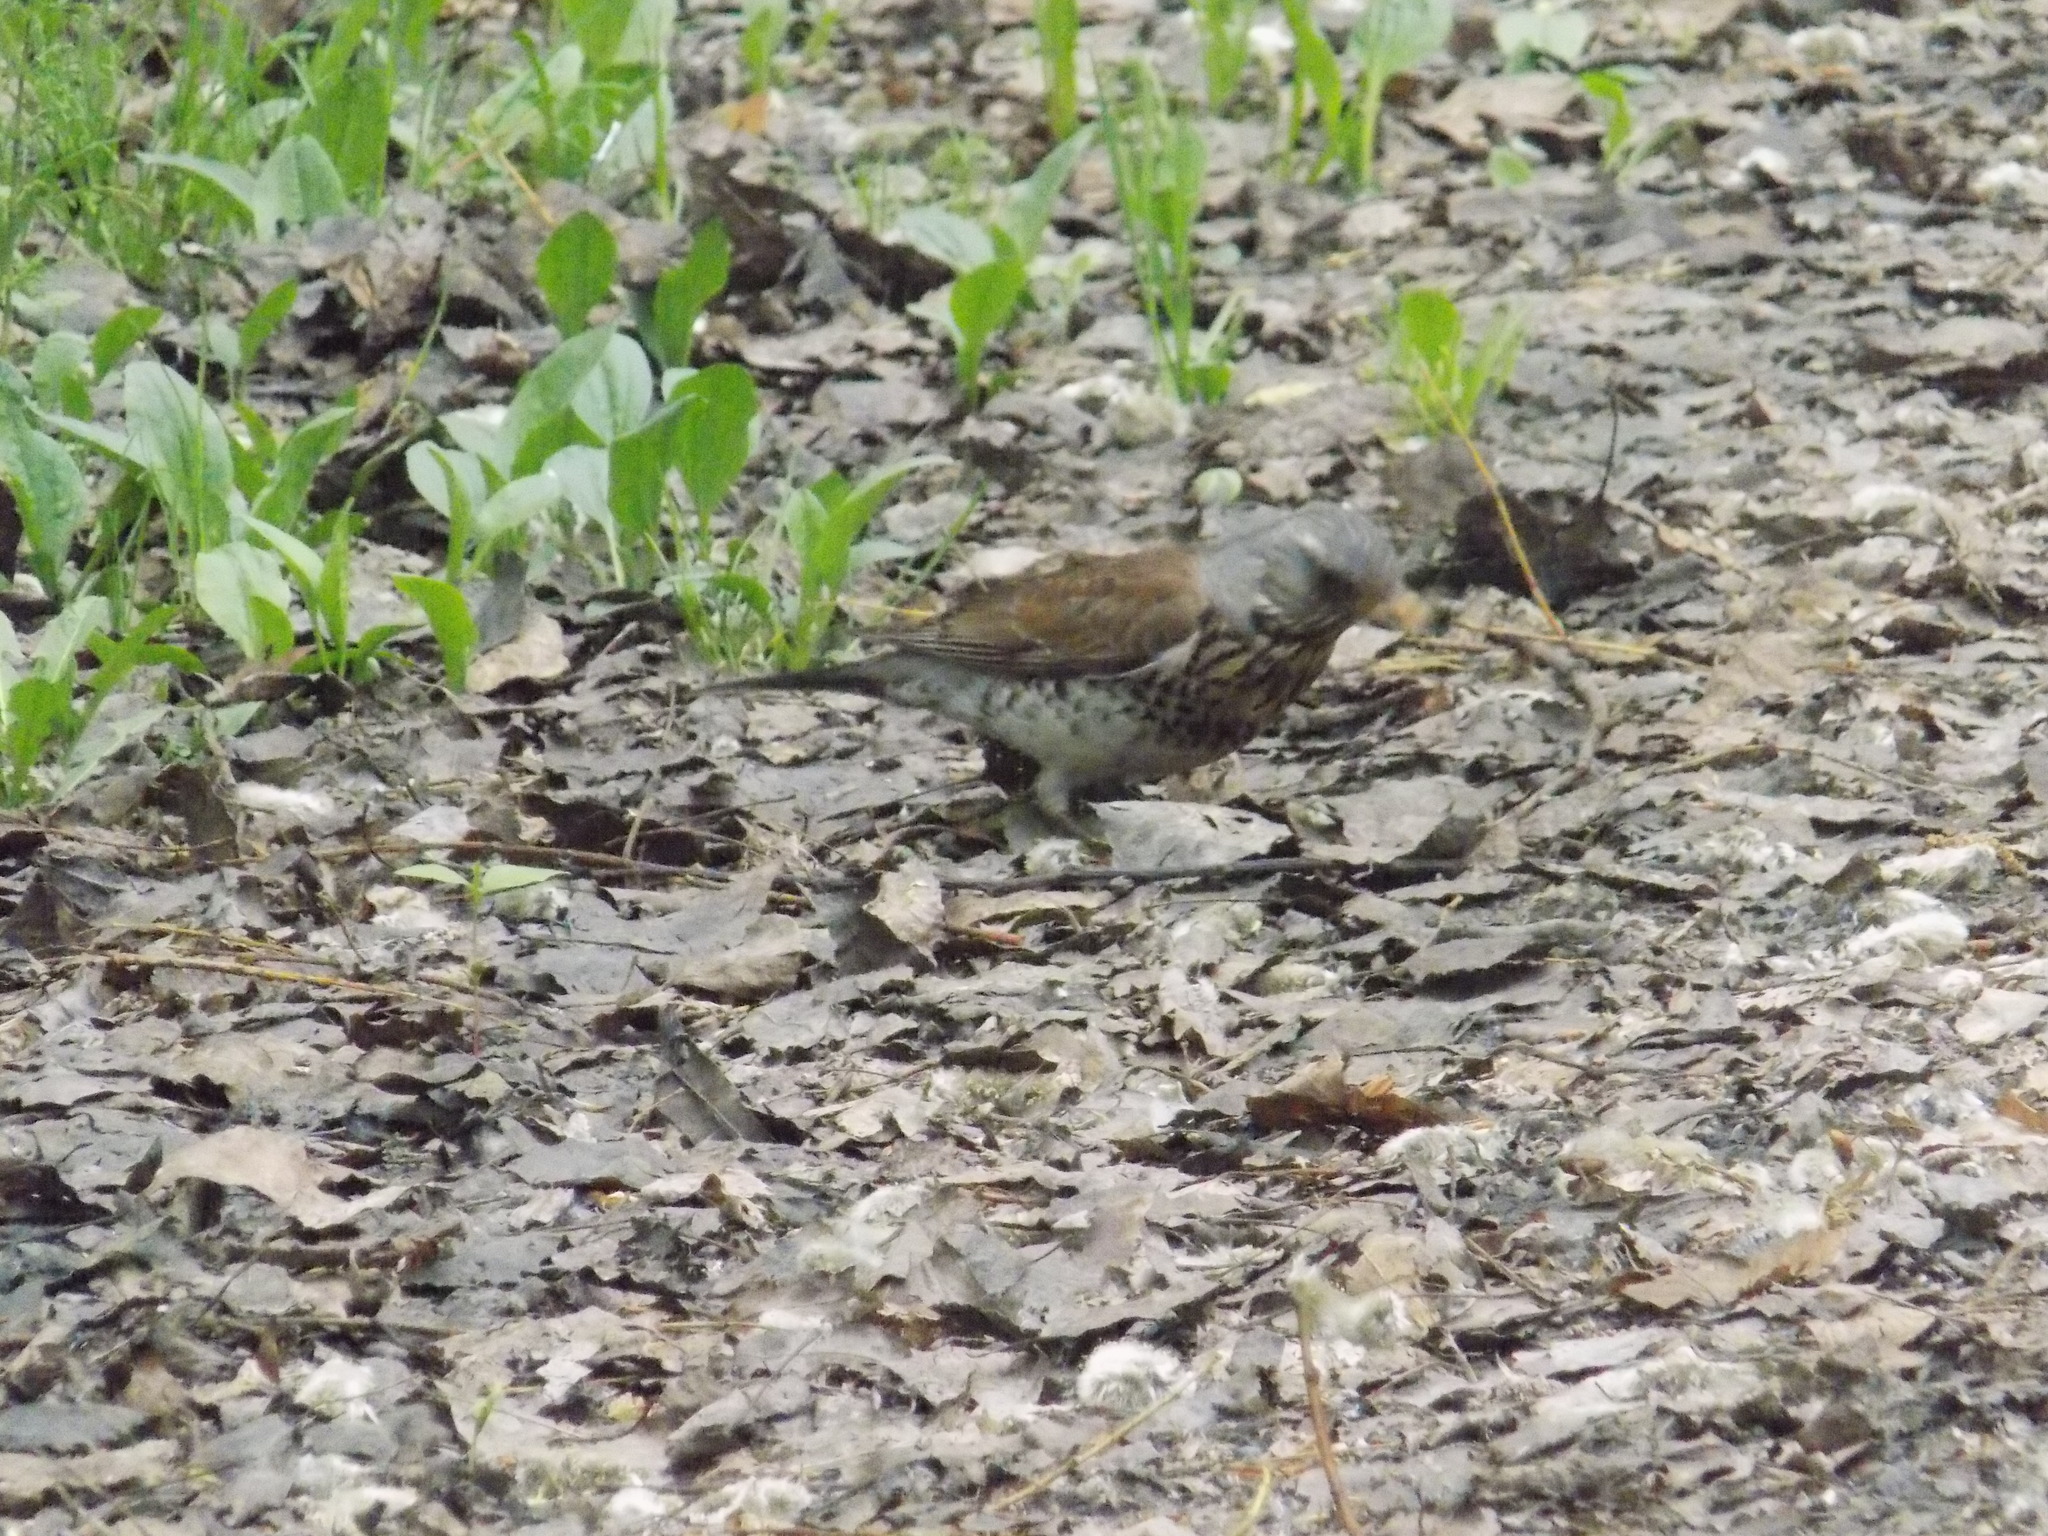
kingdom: Animalia
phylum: Chordata
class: Aves
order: Passeriformes
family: Turdidae
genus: Turdus
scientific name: Turdus pilaris
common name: Fieldfare
